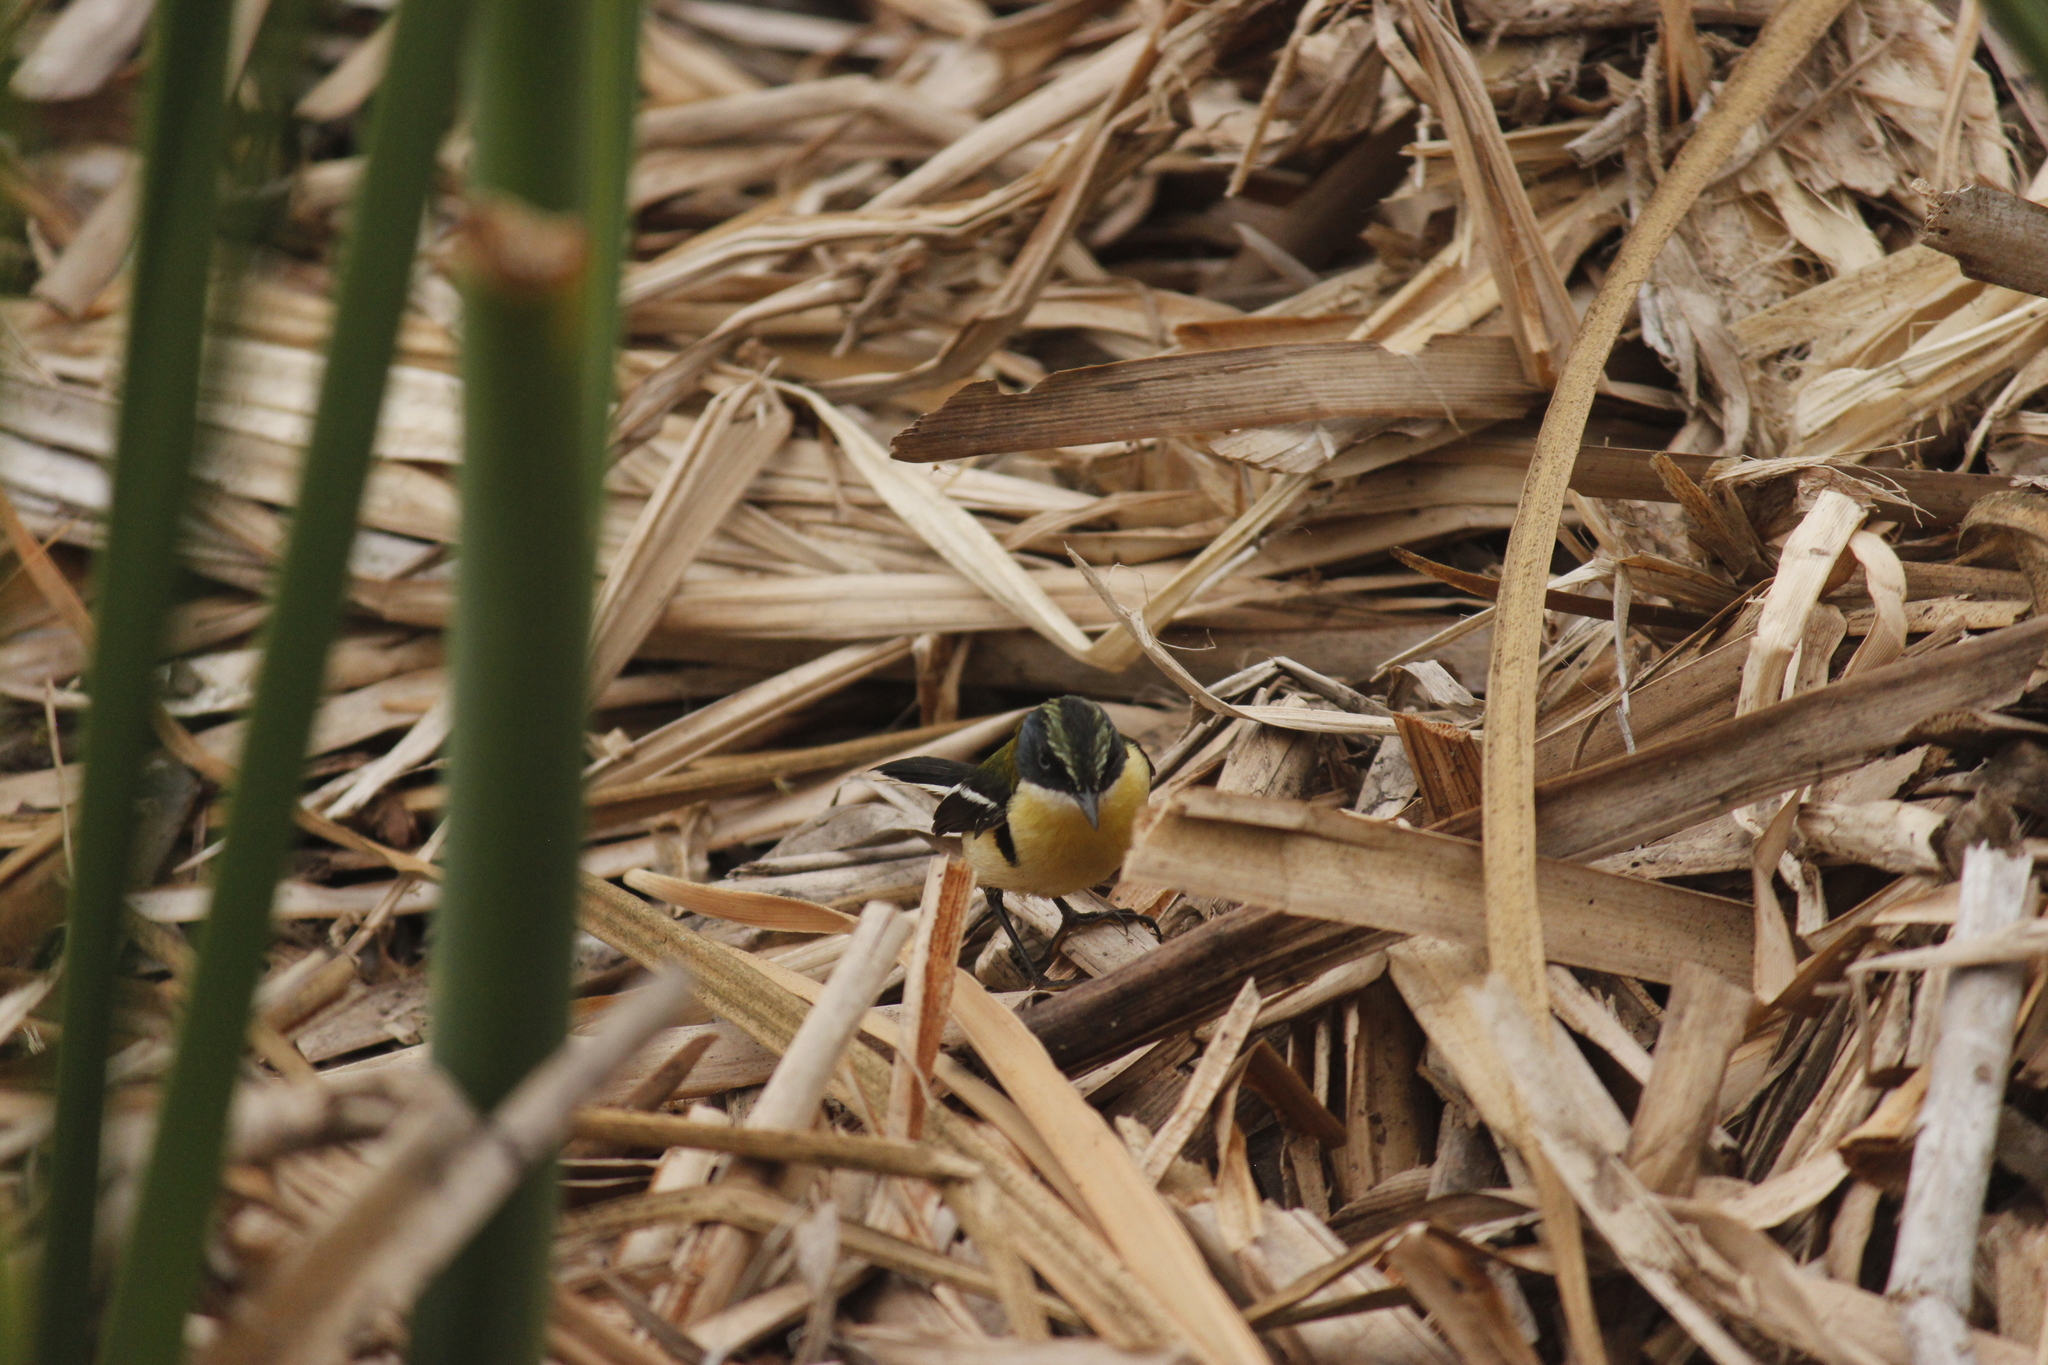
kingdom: Animalia
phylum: Chordata
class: Aves
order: Passeriformes
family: Tyrannidae
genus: Tachuris
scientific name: Tachuris rubrigastra
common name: Many-colored rush tyrant
